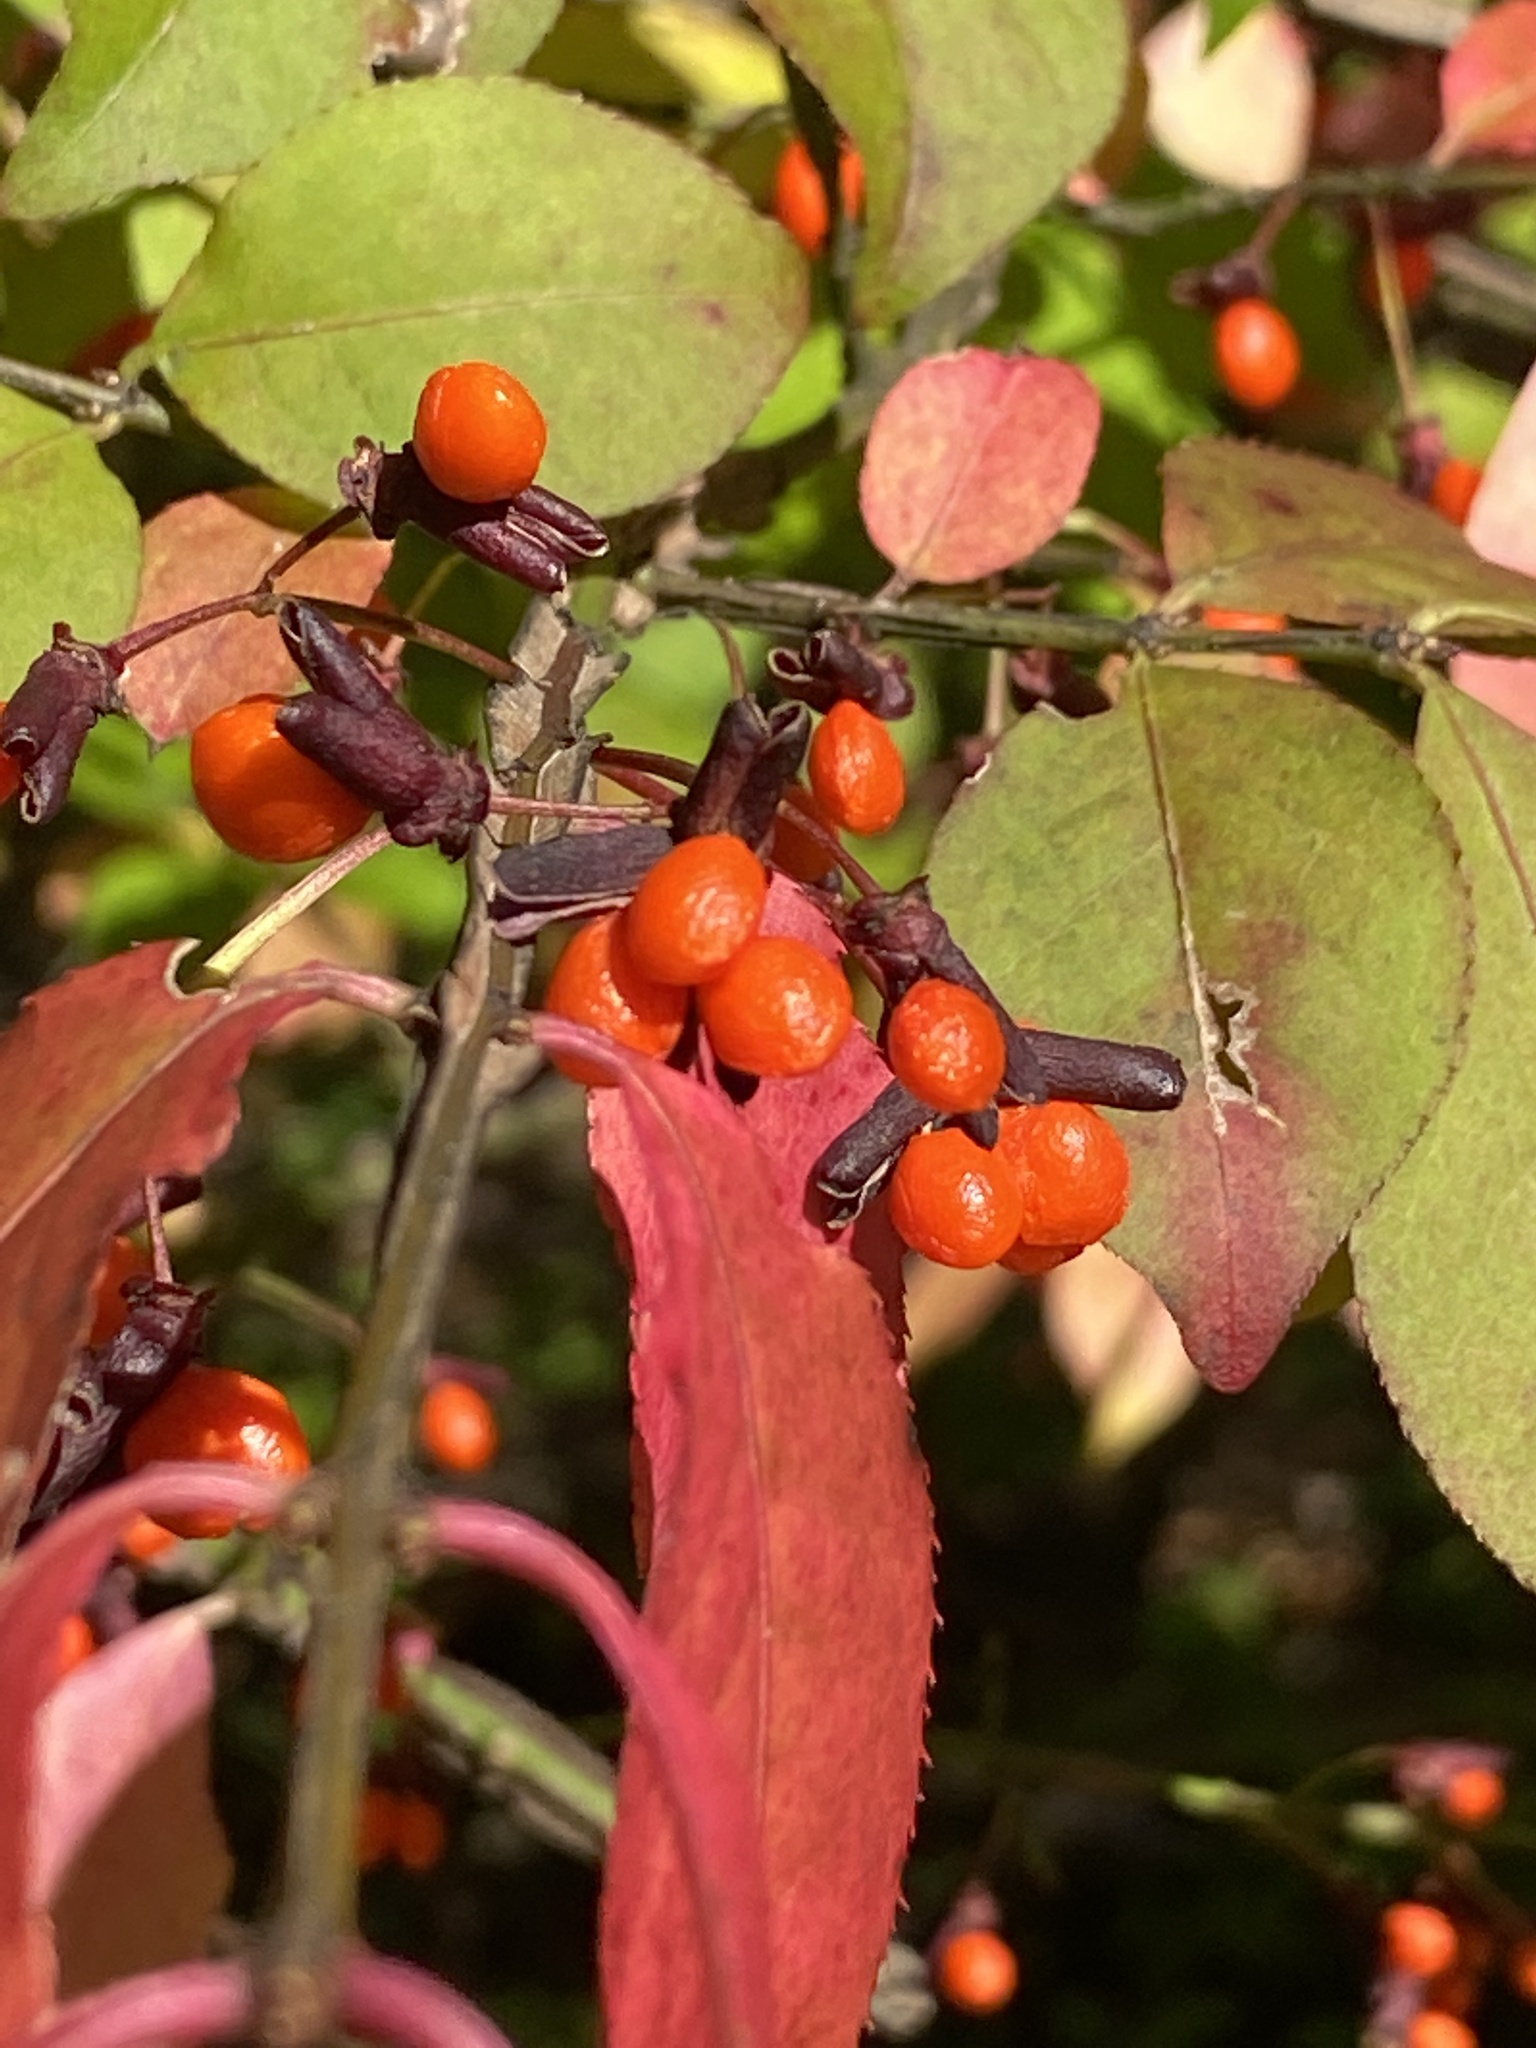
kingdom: Plantae
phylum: Tracheophyta
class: Magnoliopsida
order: Celastrales
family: Celastraceae
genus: Euonymus
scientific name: Euonymus alatus
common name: Winged euonymus
